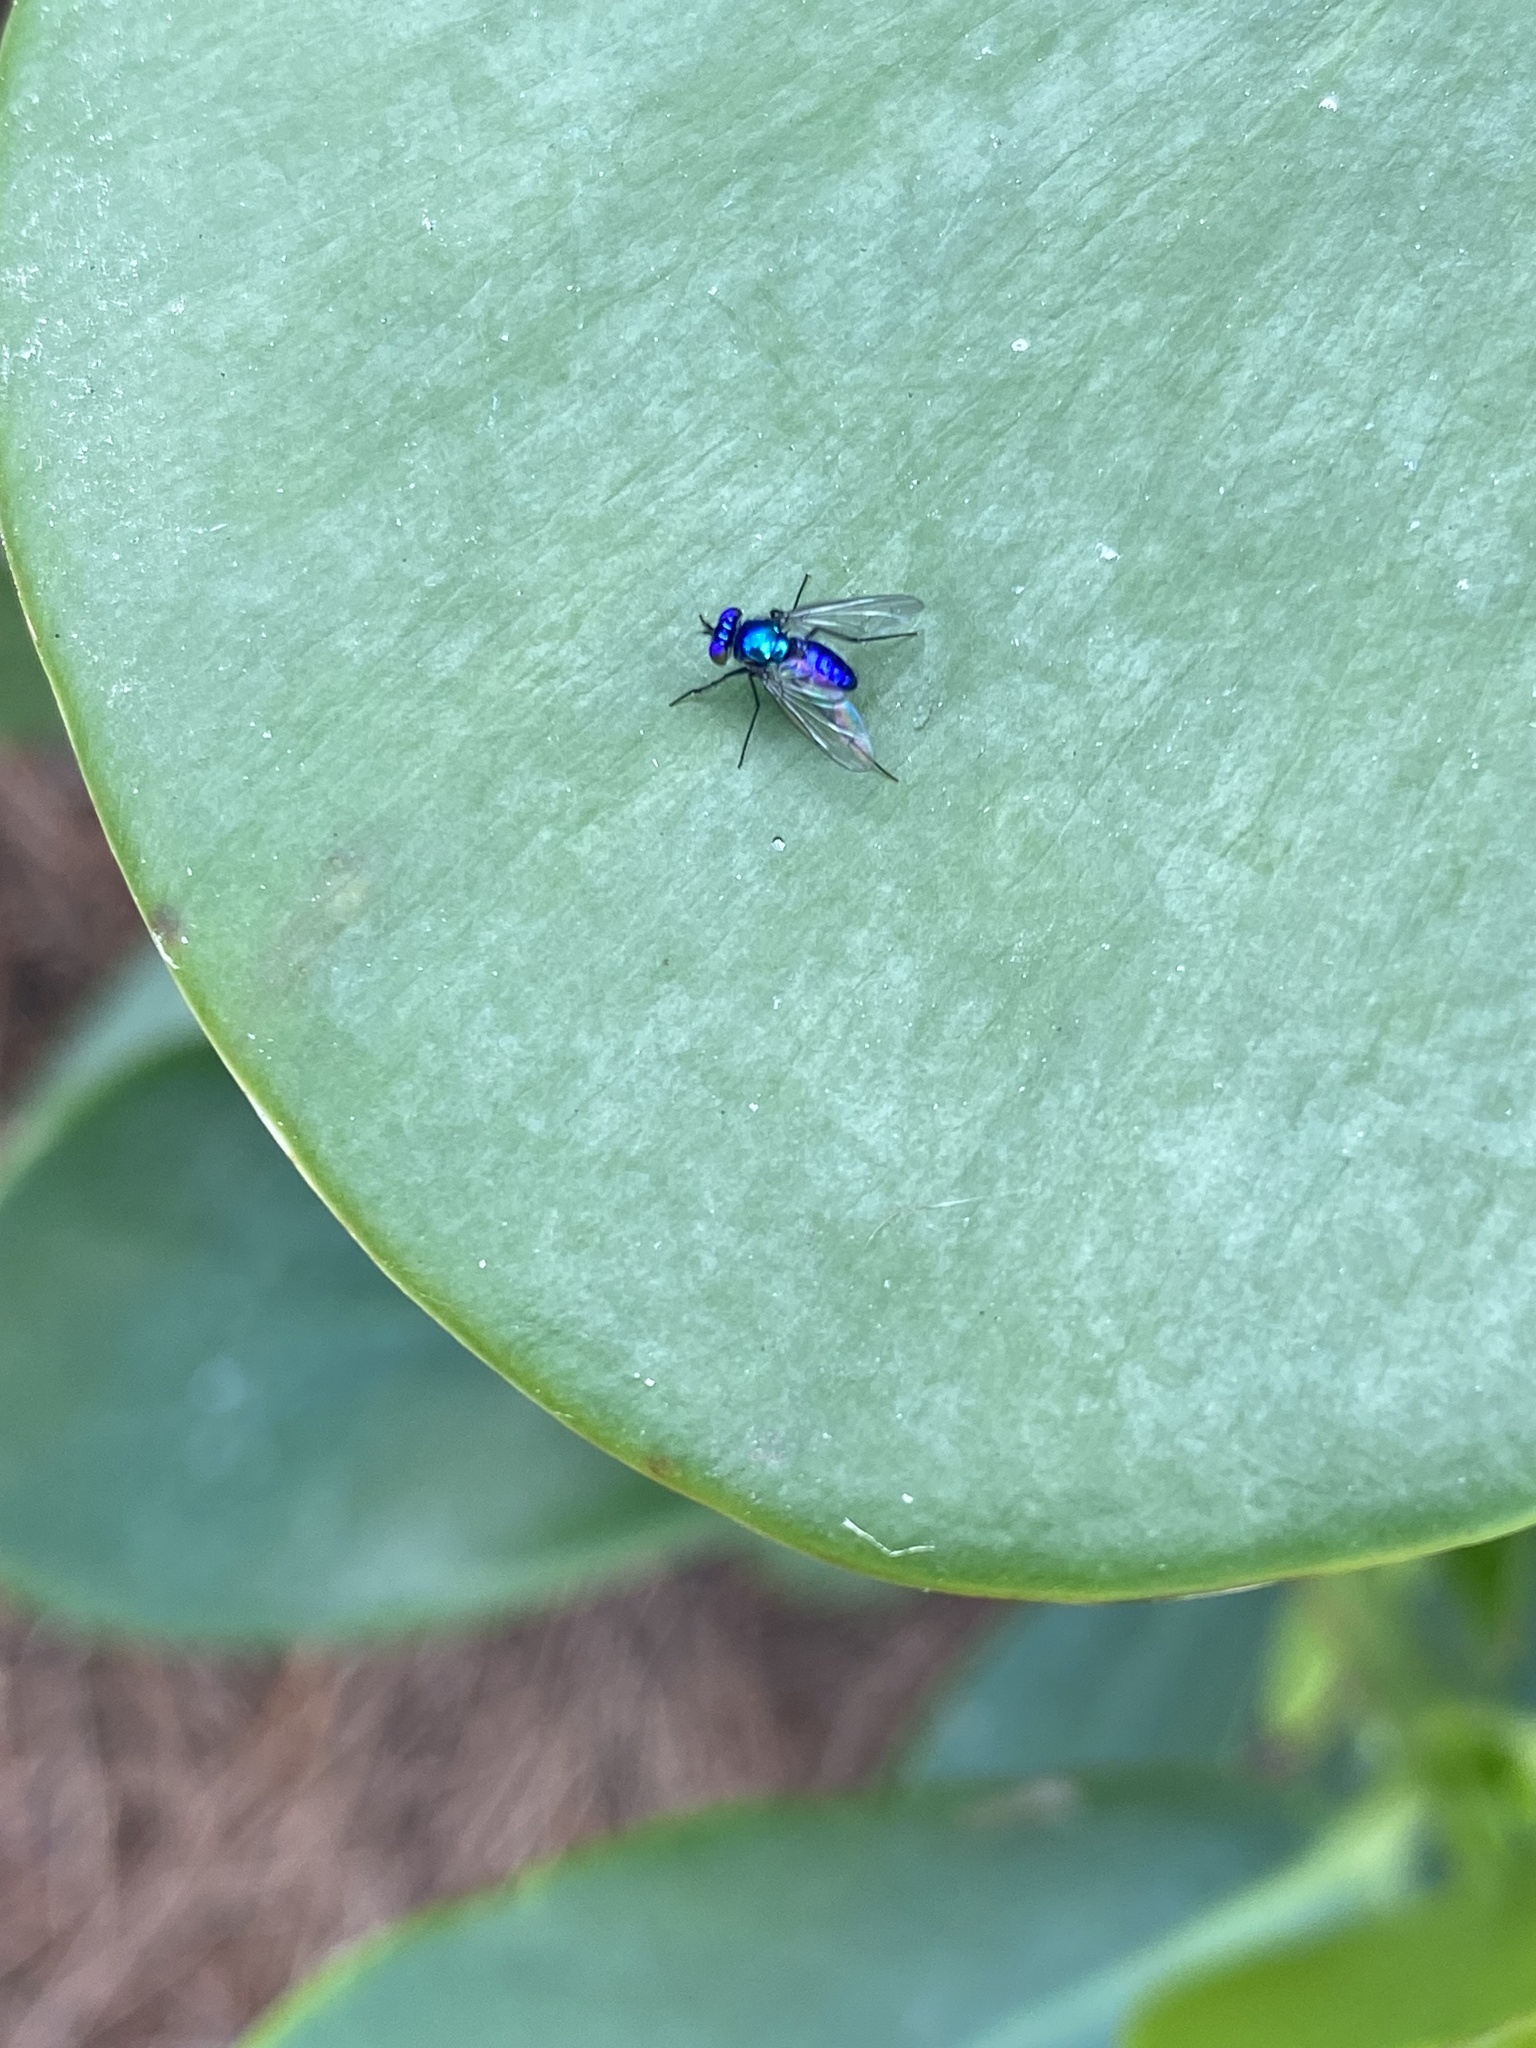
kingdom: Animalia
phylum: Arthropoda
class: Insecta
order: Diptera
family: Dolichopodidae
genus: Condylostylus
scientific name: Condylostylus mundus
